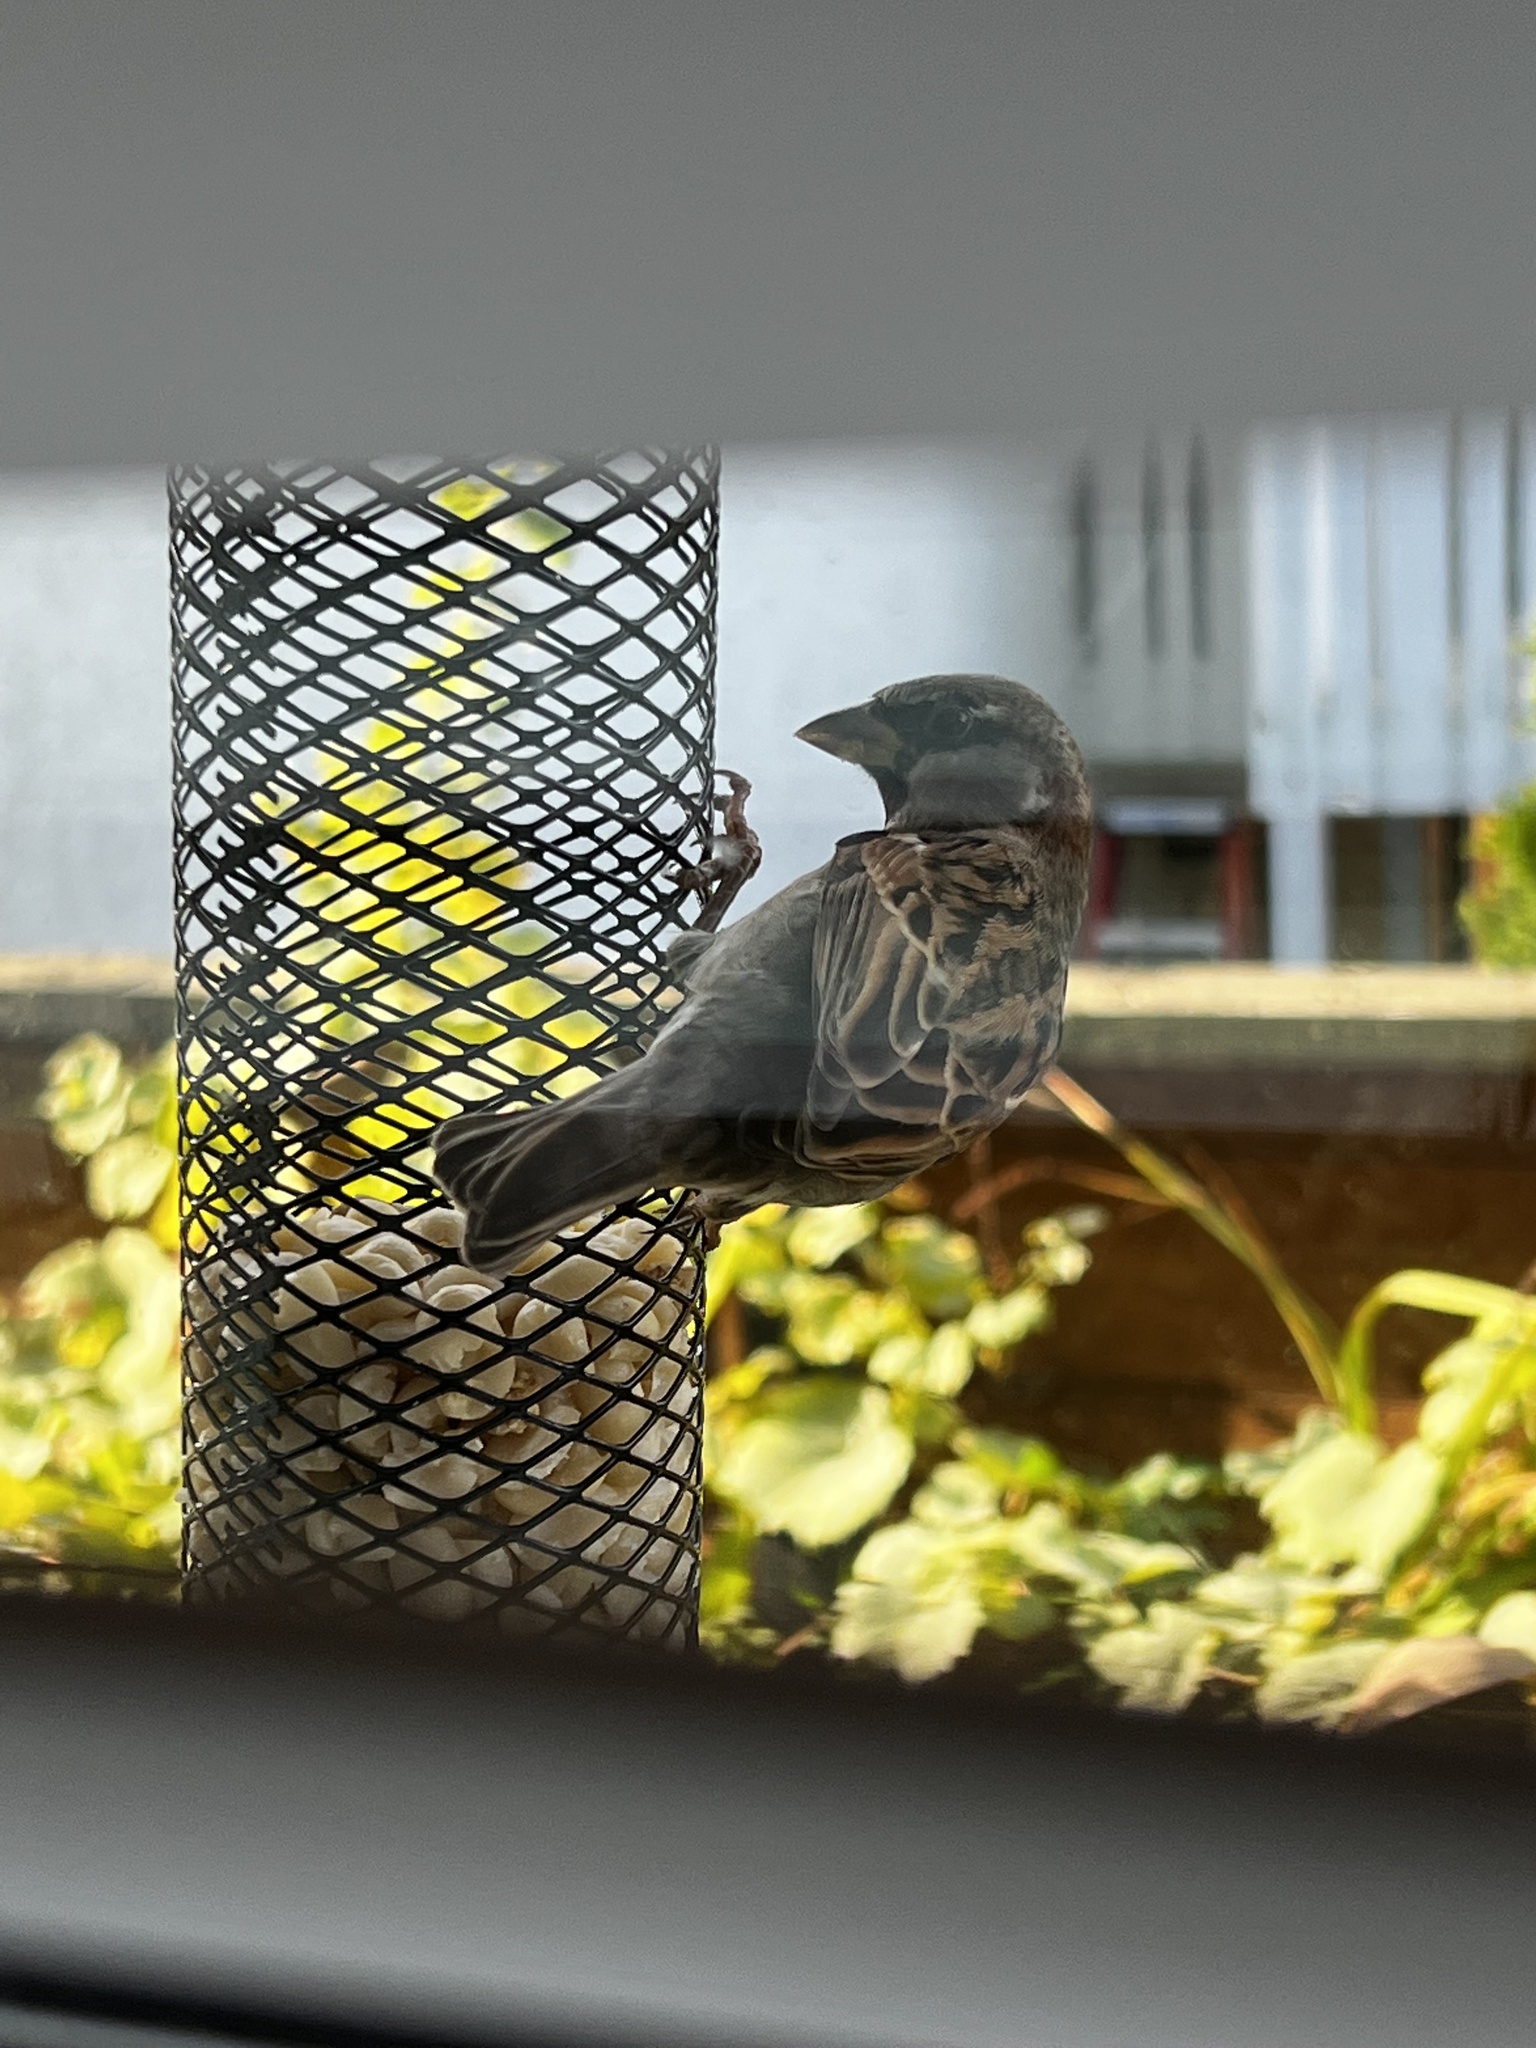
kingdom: Animalia
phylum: Chordata
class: Aves
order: Passeriformes
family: Passeridae
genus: Passer
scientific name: Passer domesticus
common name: House sparrow
